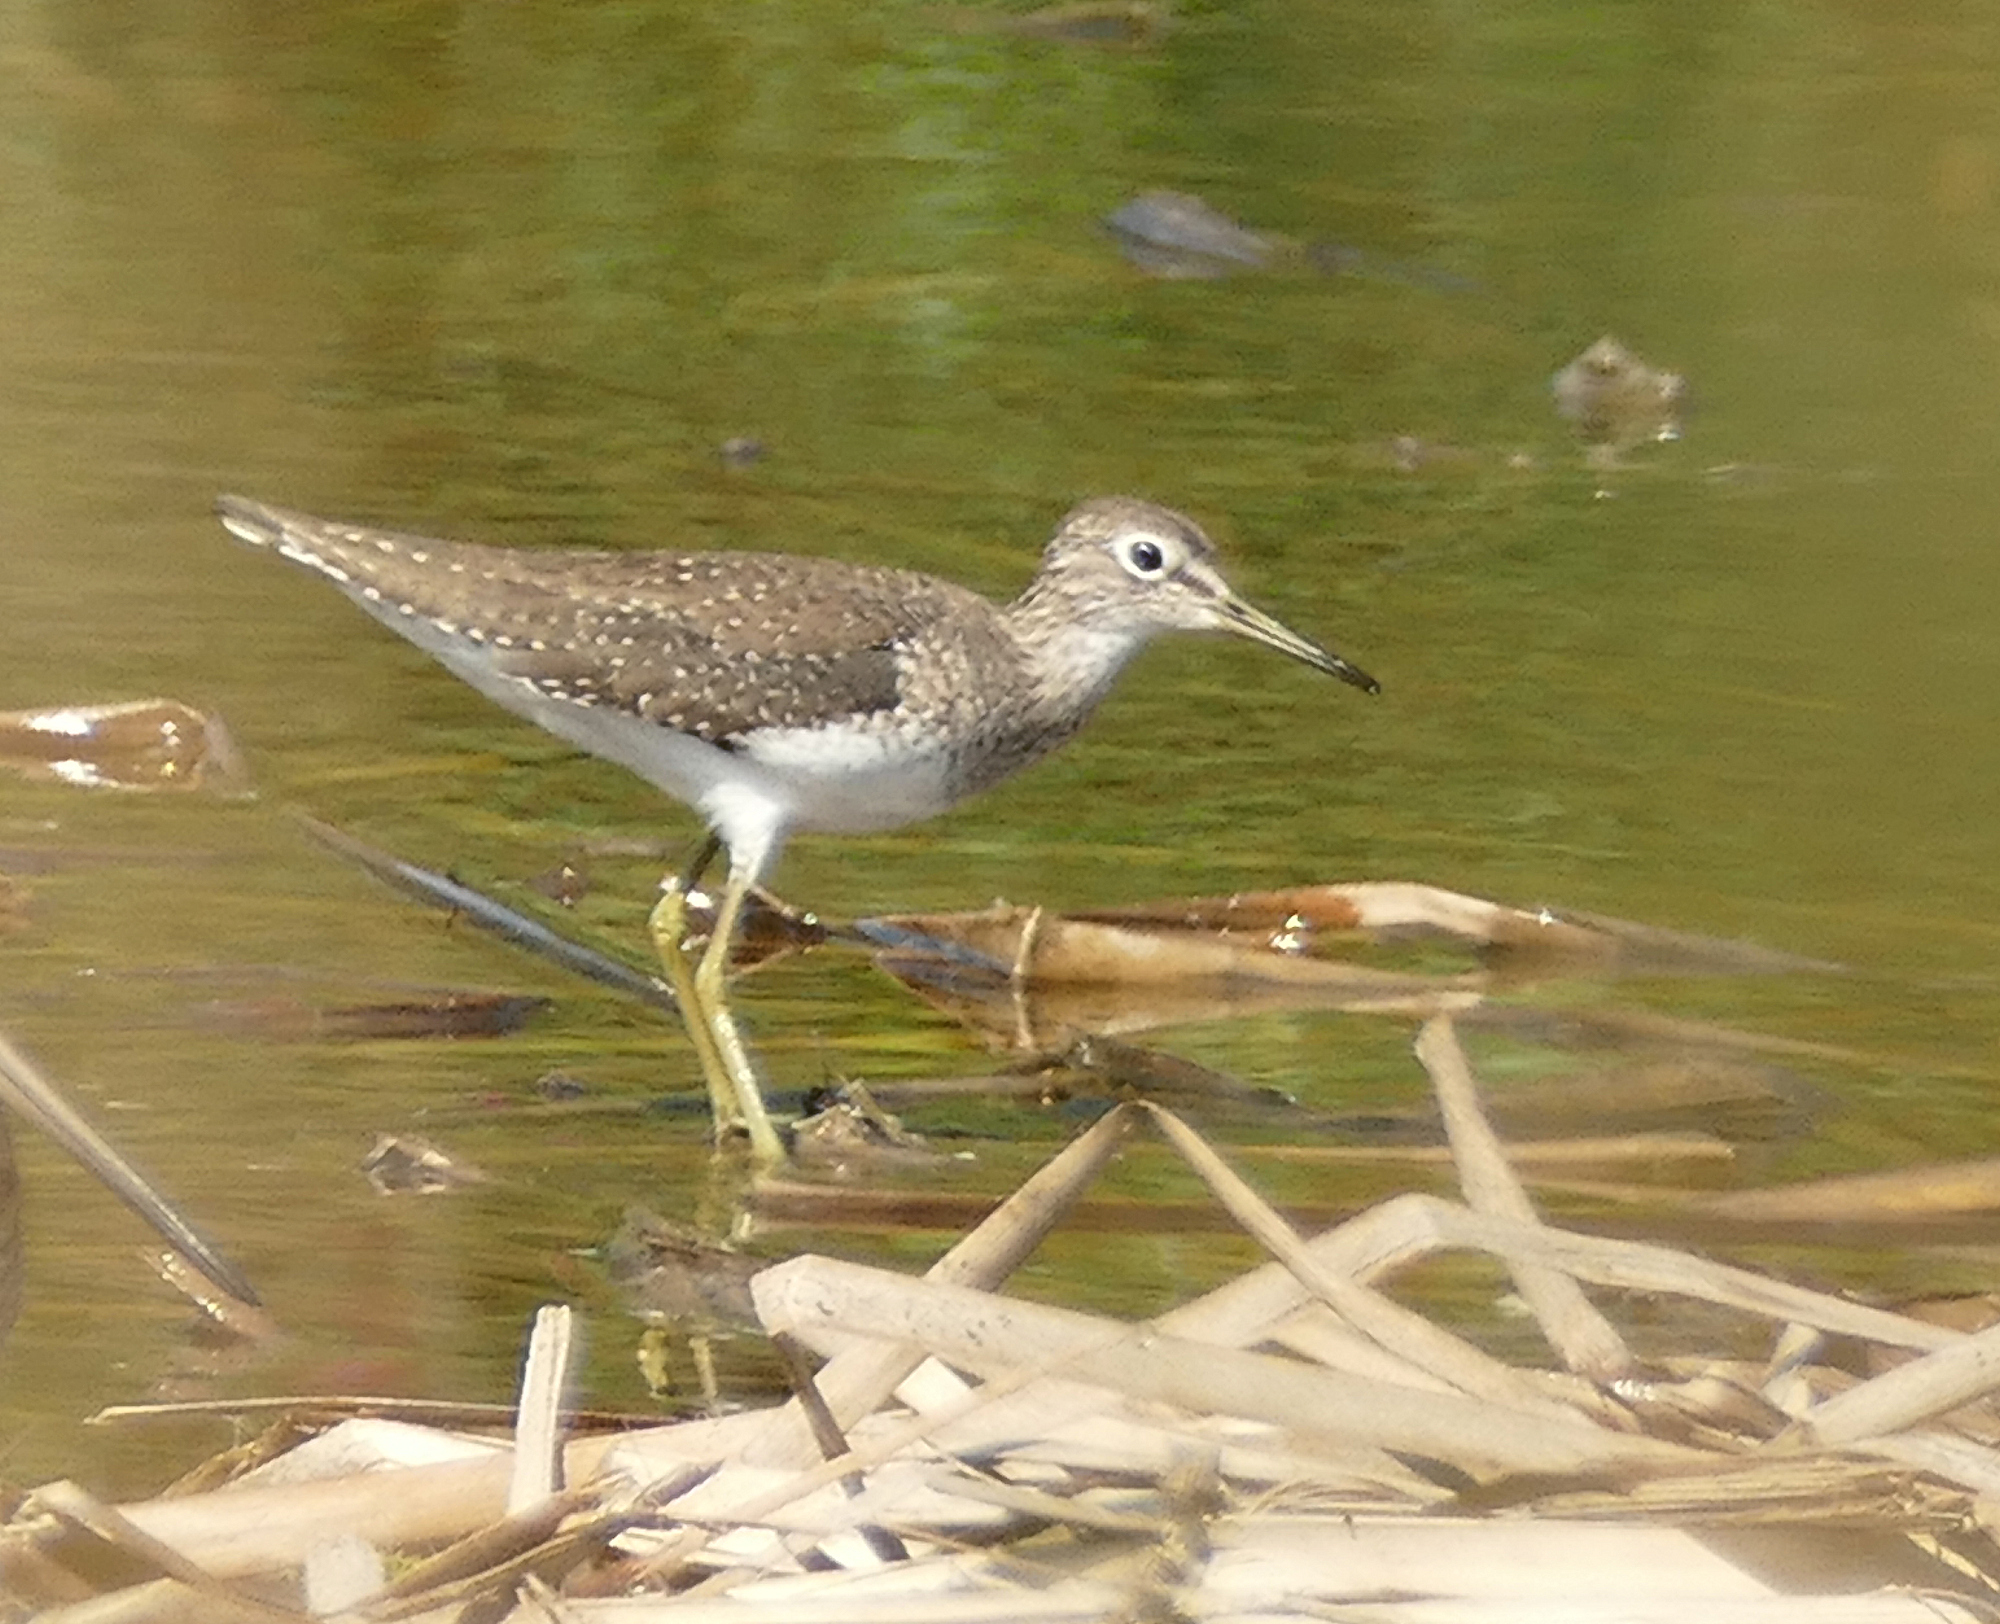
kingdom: Animalia
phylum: Chordata
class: Aves
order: Charadriiformes
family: Scolopacidae
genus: Tringa
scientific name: Tringa solitaria
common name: Solitary sandpiper
